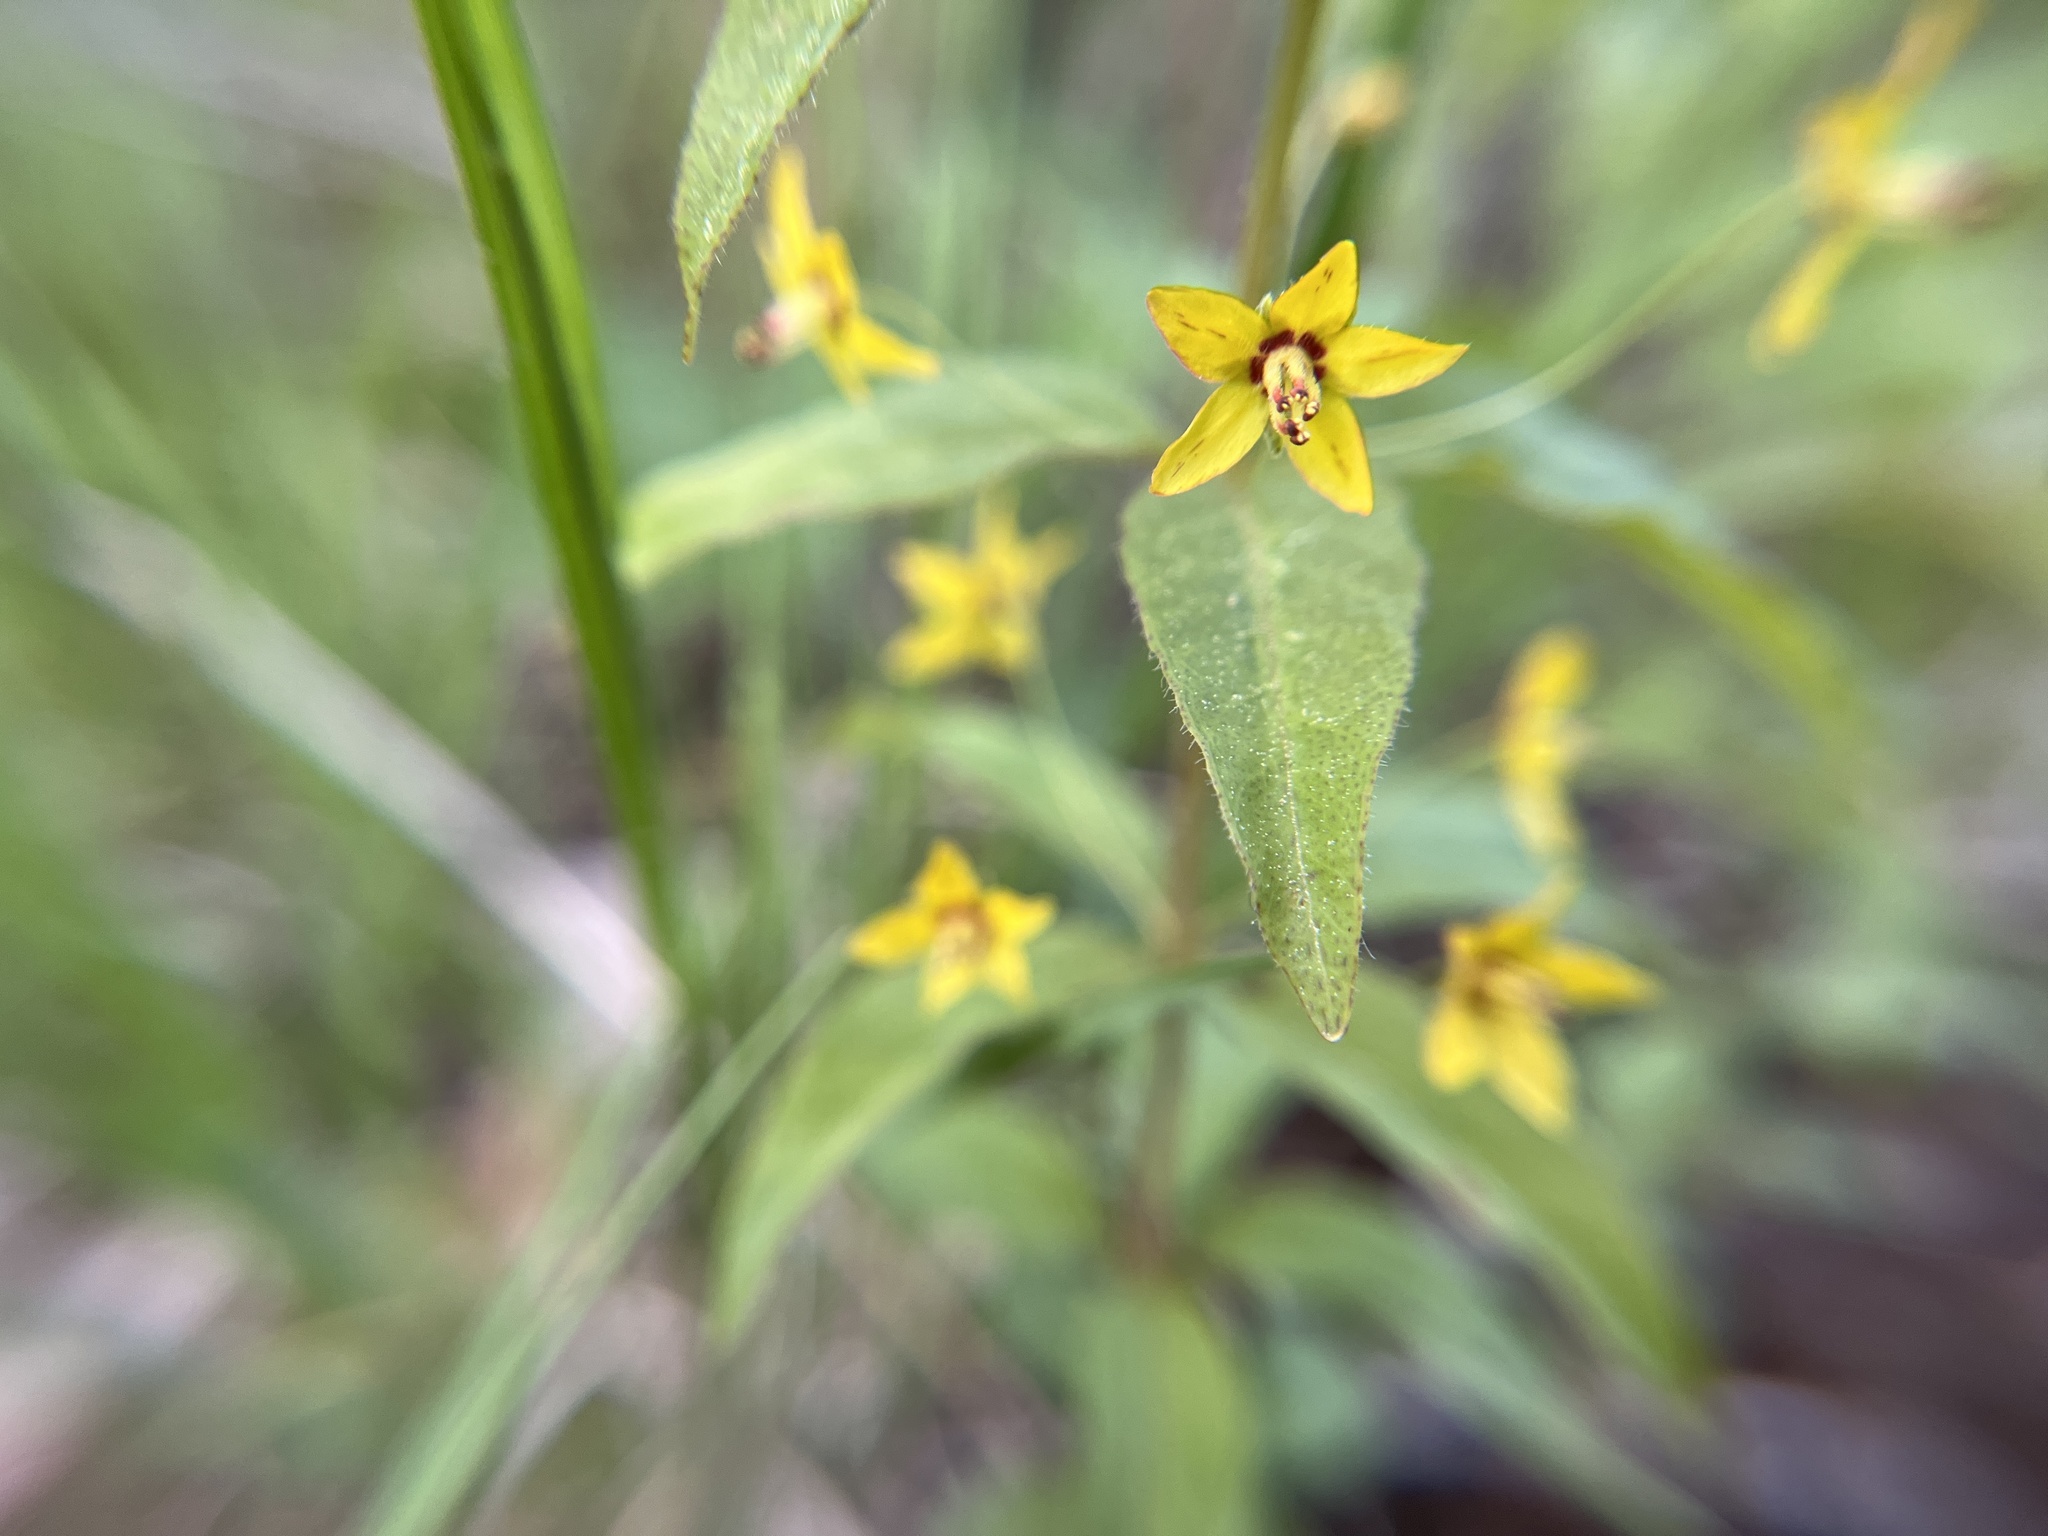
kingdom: Plantae
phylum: Tracheophyta
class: Magnoliopsida
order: Ericales
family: Primulaceae
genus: Lysimachia
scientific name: Lysimachia quadrifolia
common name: Whorled loosestrife
